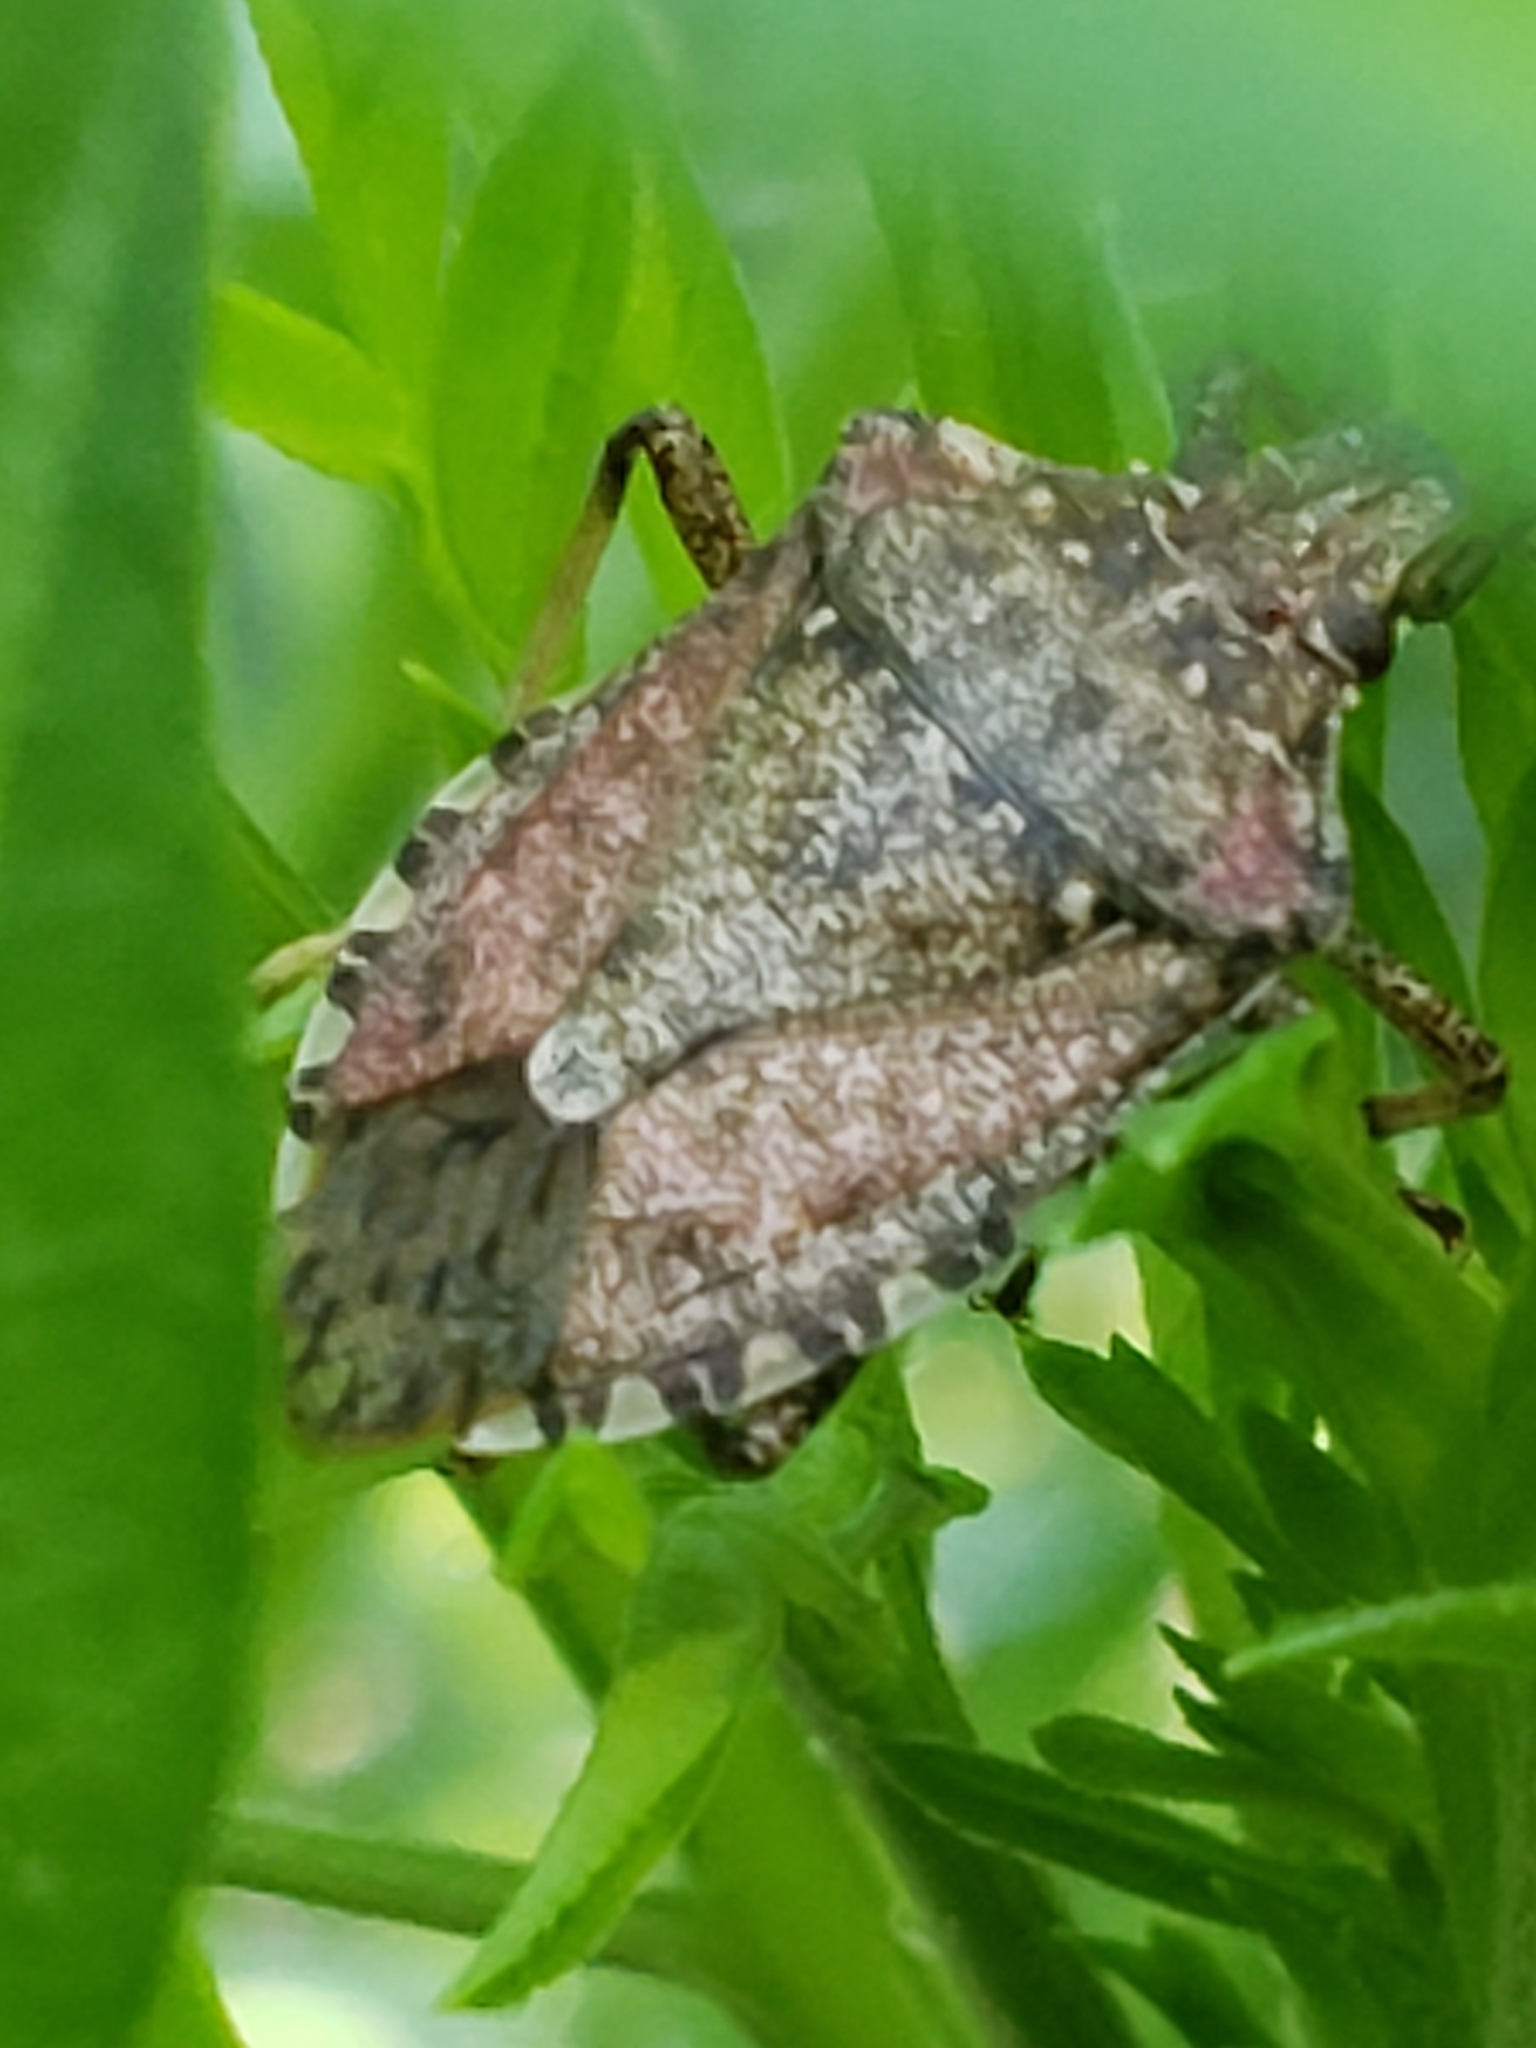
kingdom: Animalia
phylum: Arthropoda
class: Insecta
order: Hemiptera
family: Pentatomidae
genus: Halyomorpha
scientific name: Halyomorpha halys
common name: Brown marmorated stink bug
